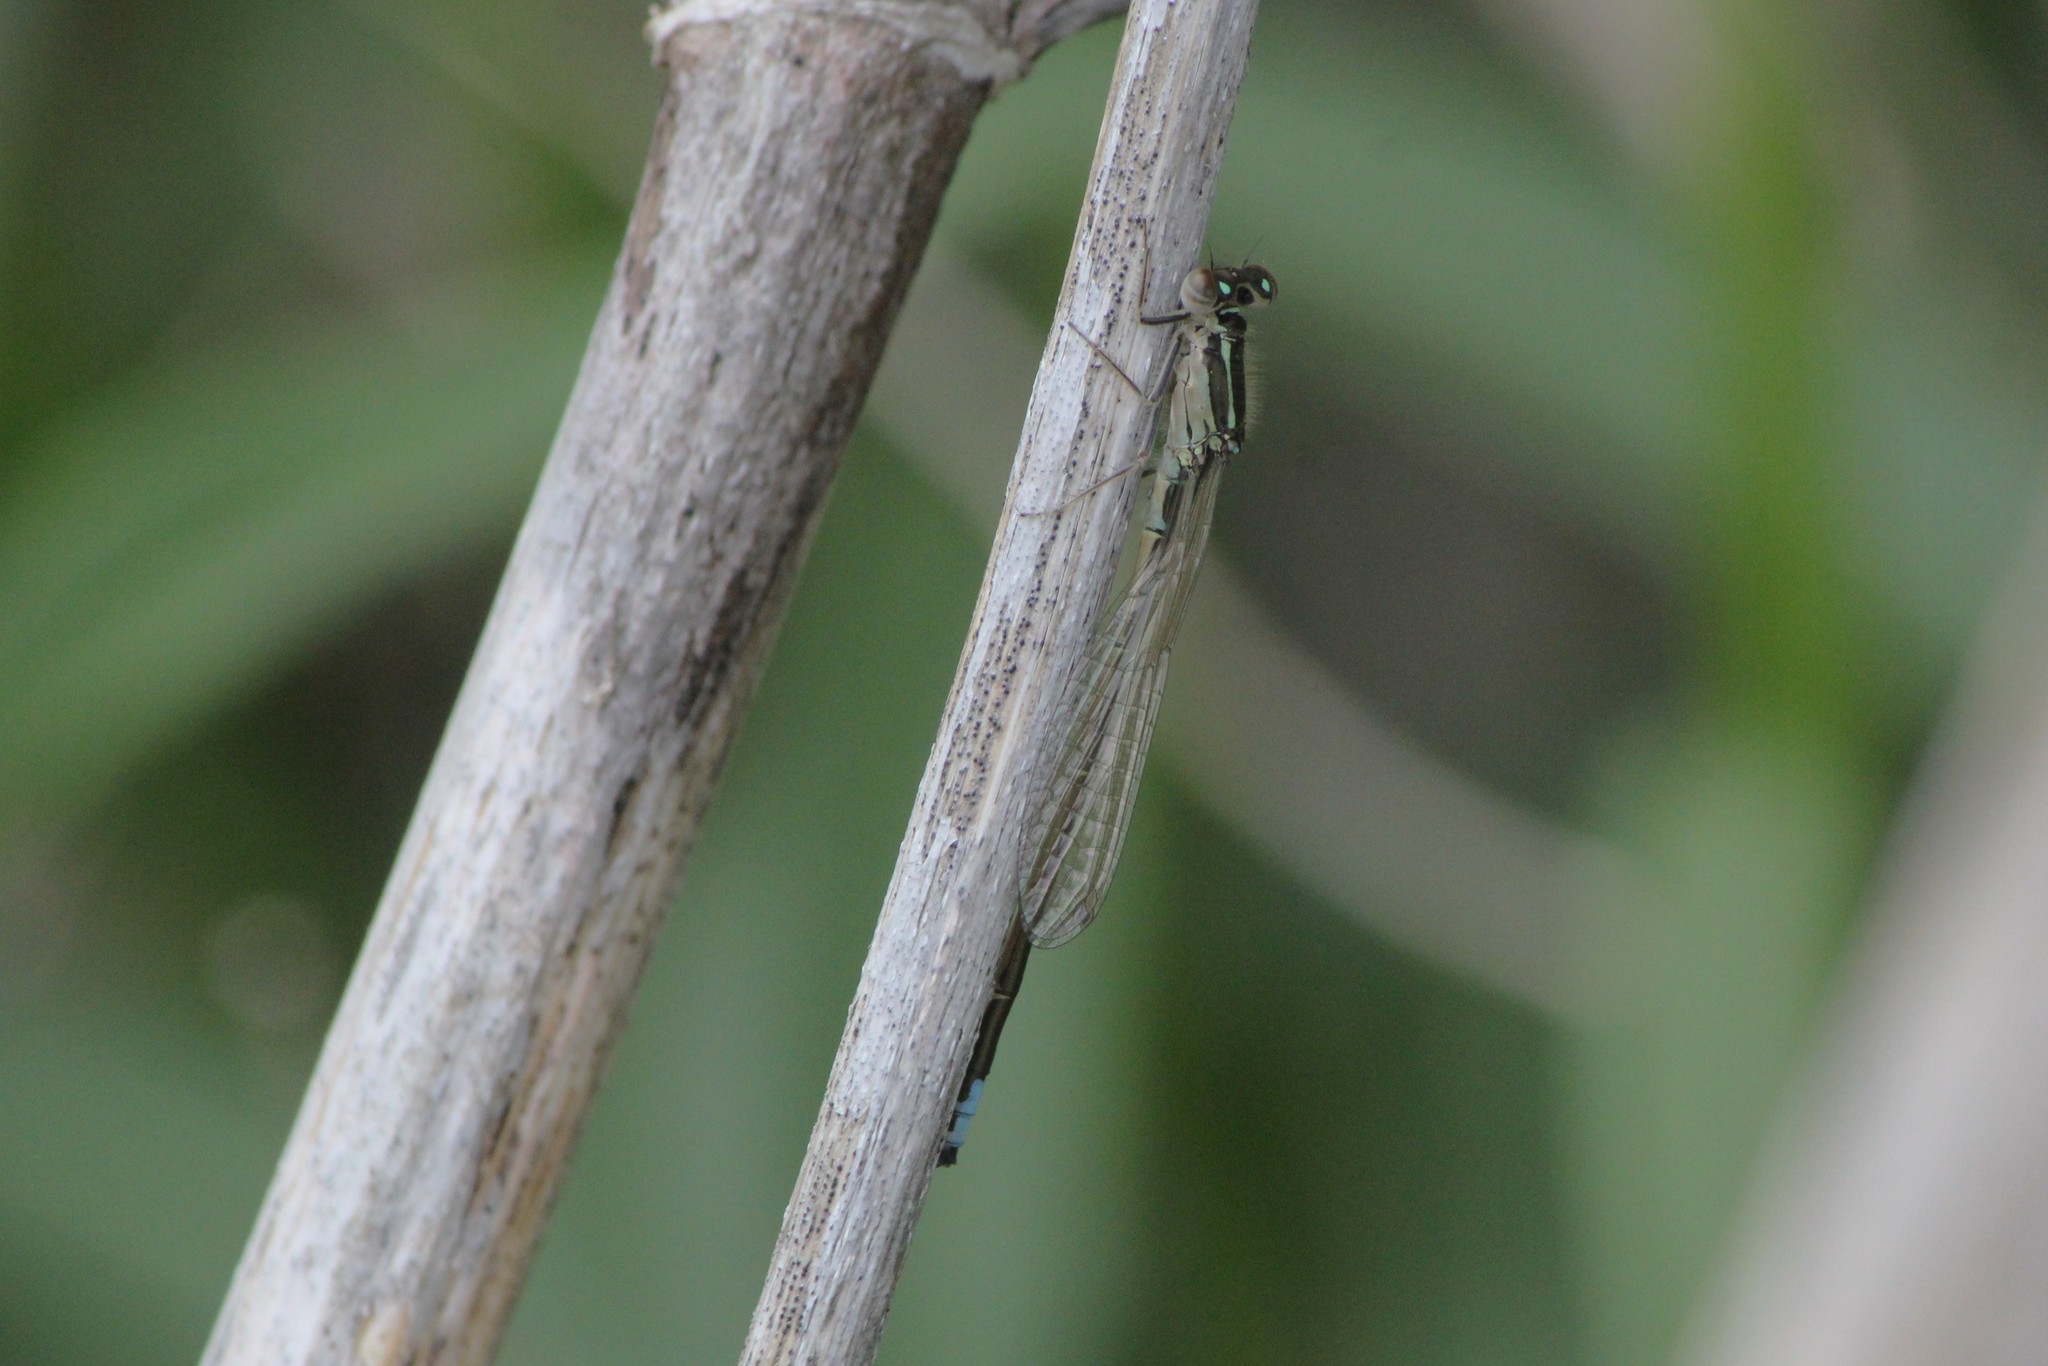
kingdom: Animalia
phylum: Arthropoda
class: Insecta
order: Odonata
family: Coenagrionidae
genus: Ischnura
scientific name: Ischnura verticalis
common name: Eastern forktail
